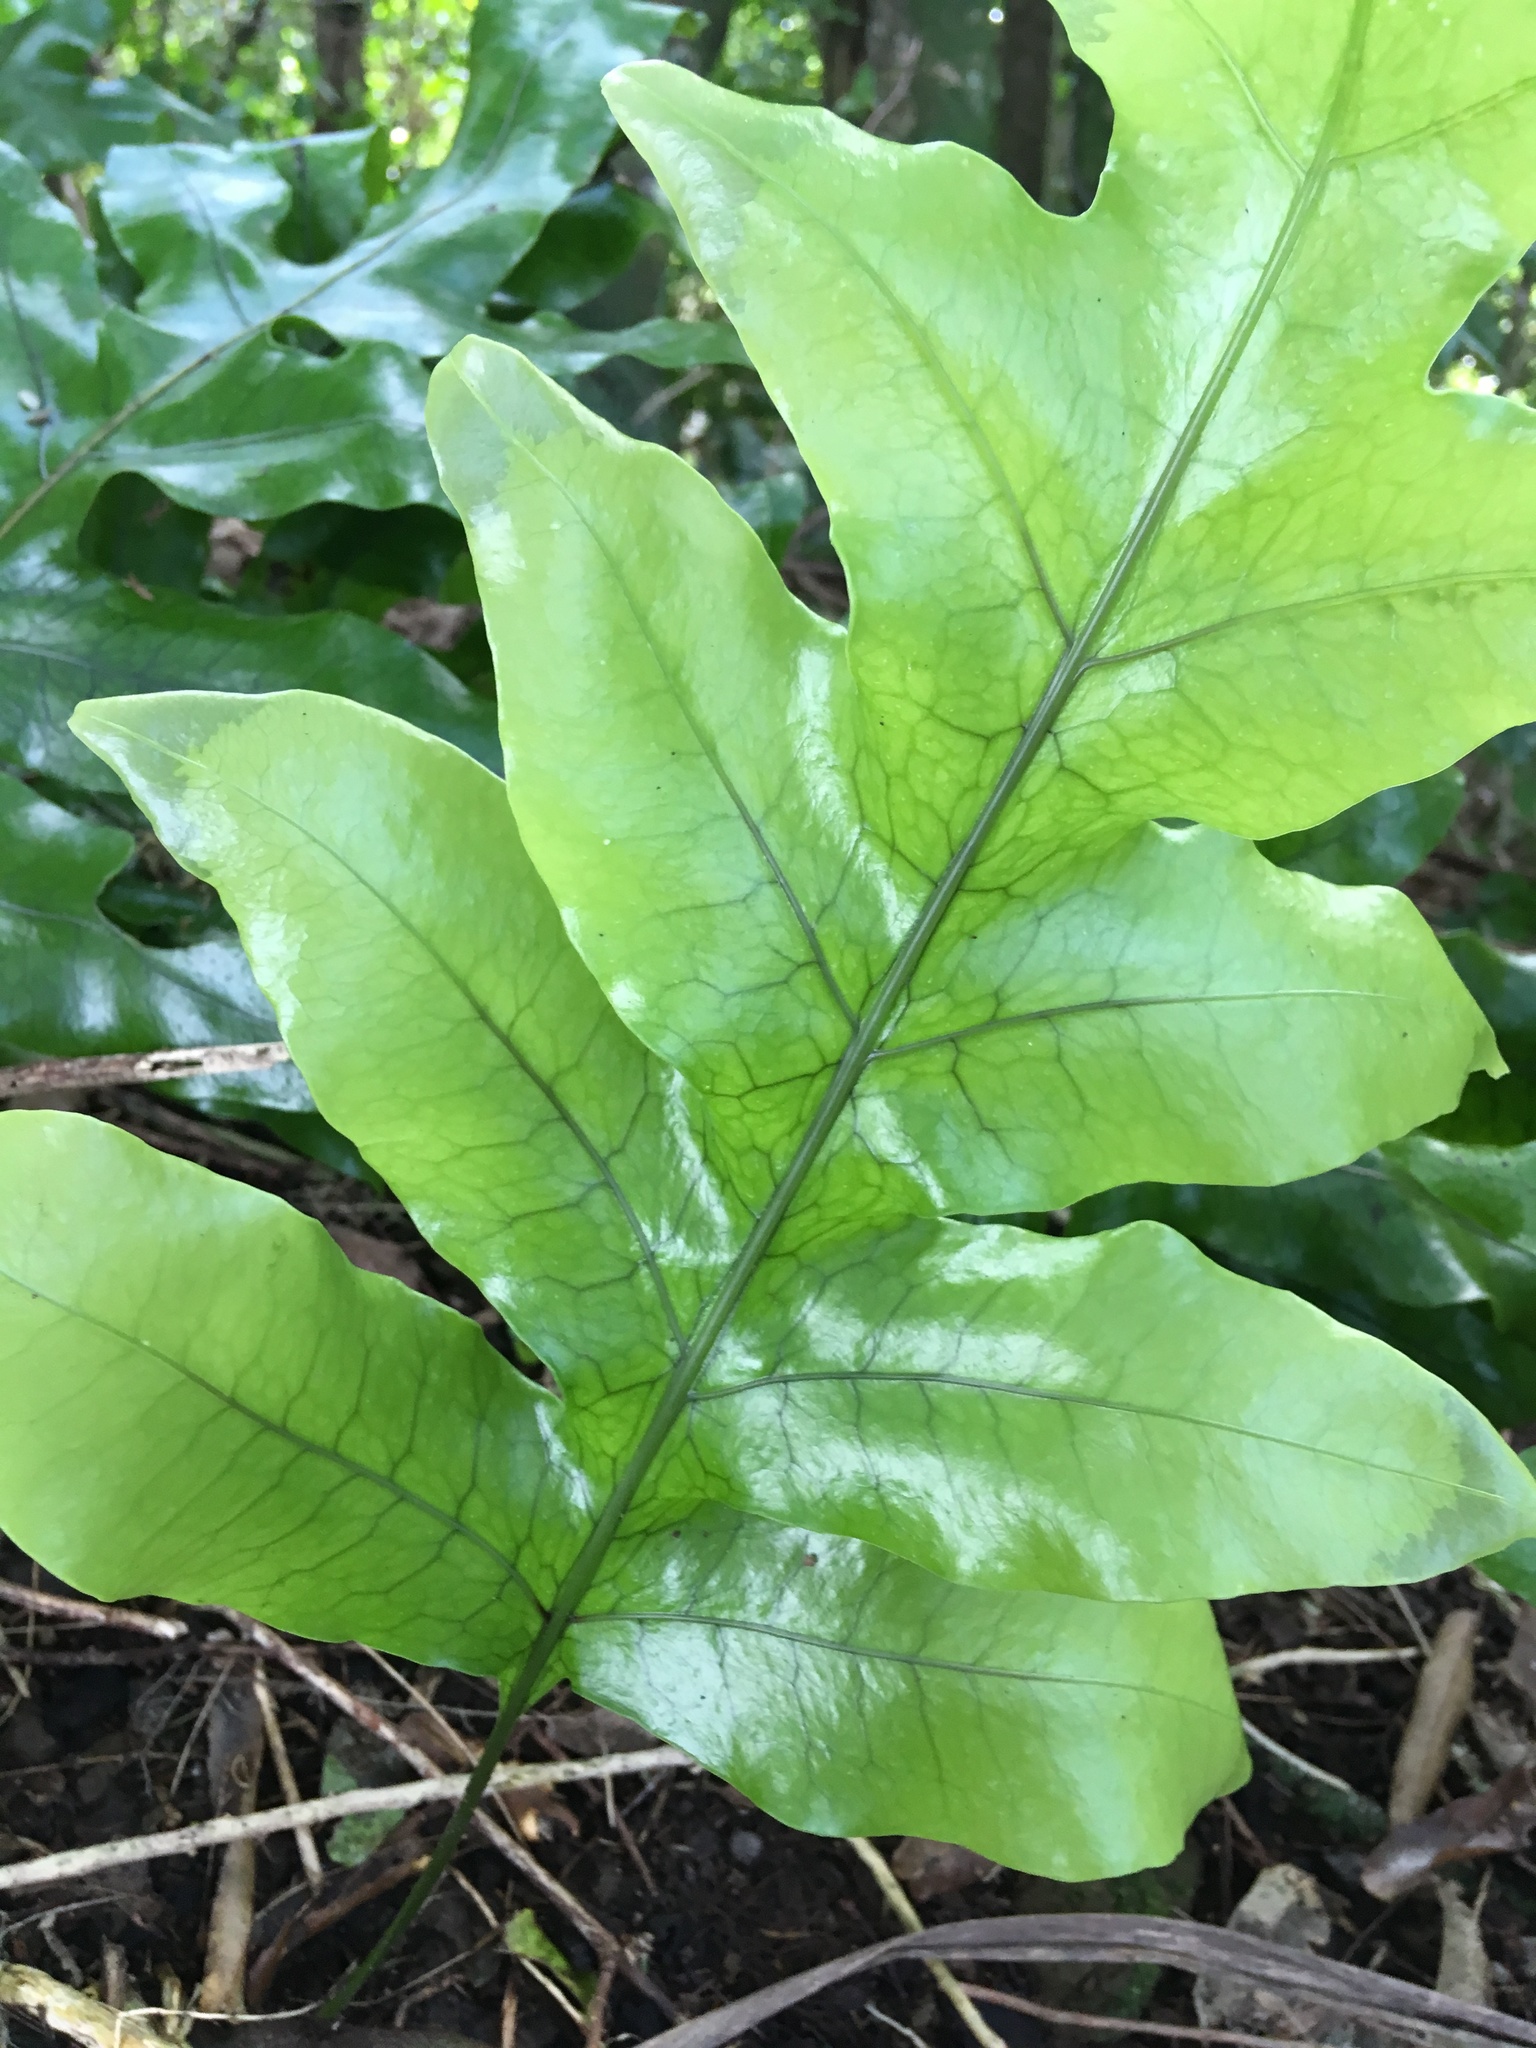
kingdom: Plantae
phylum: Tracheophyta
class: Polypodiopsida
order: Polypodiales
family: Polypodiaceae
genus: Lecanopteris
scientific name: Lecanopteris pustulata
